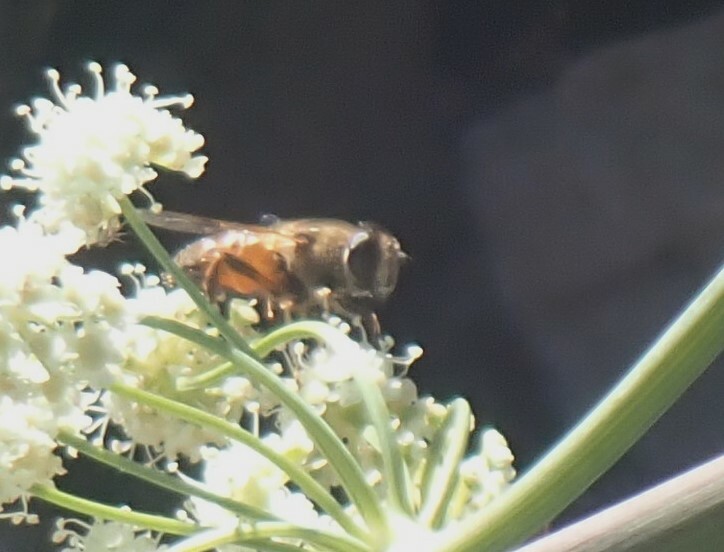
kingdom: Animalia
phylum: Arthropoda
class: Insecta
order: Diptera
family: Syrphidae
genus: Eristalis
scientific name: Eristalis tenax
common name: Drone fly
